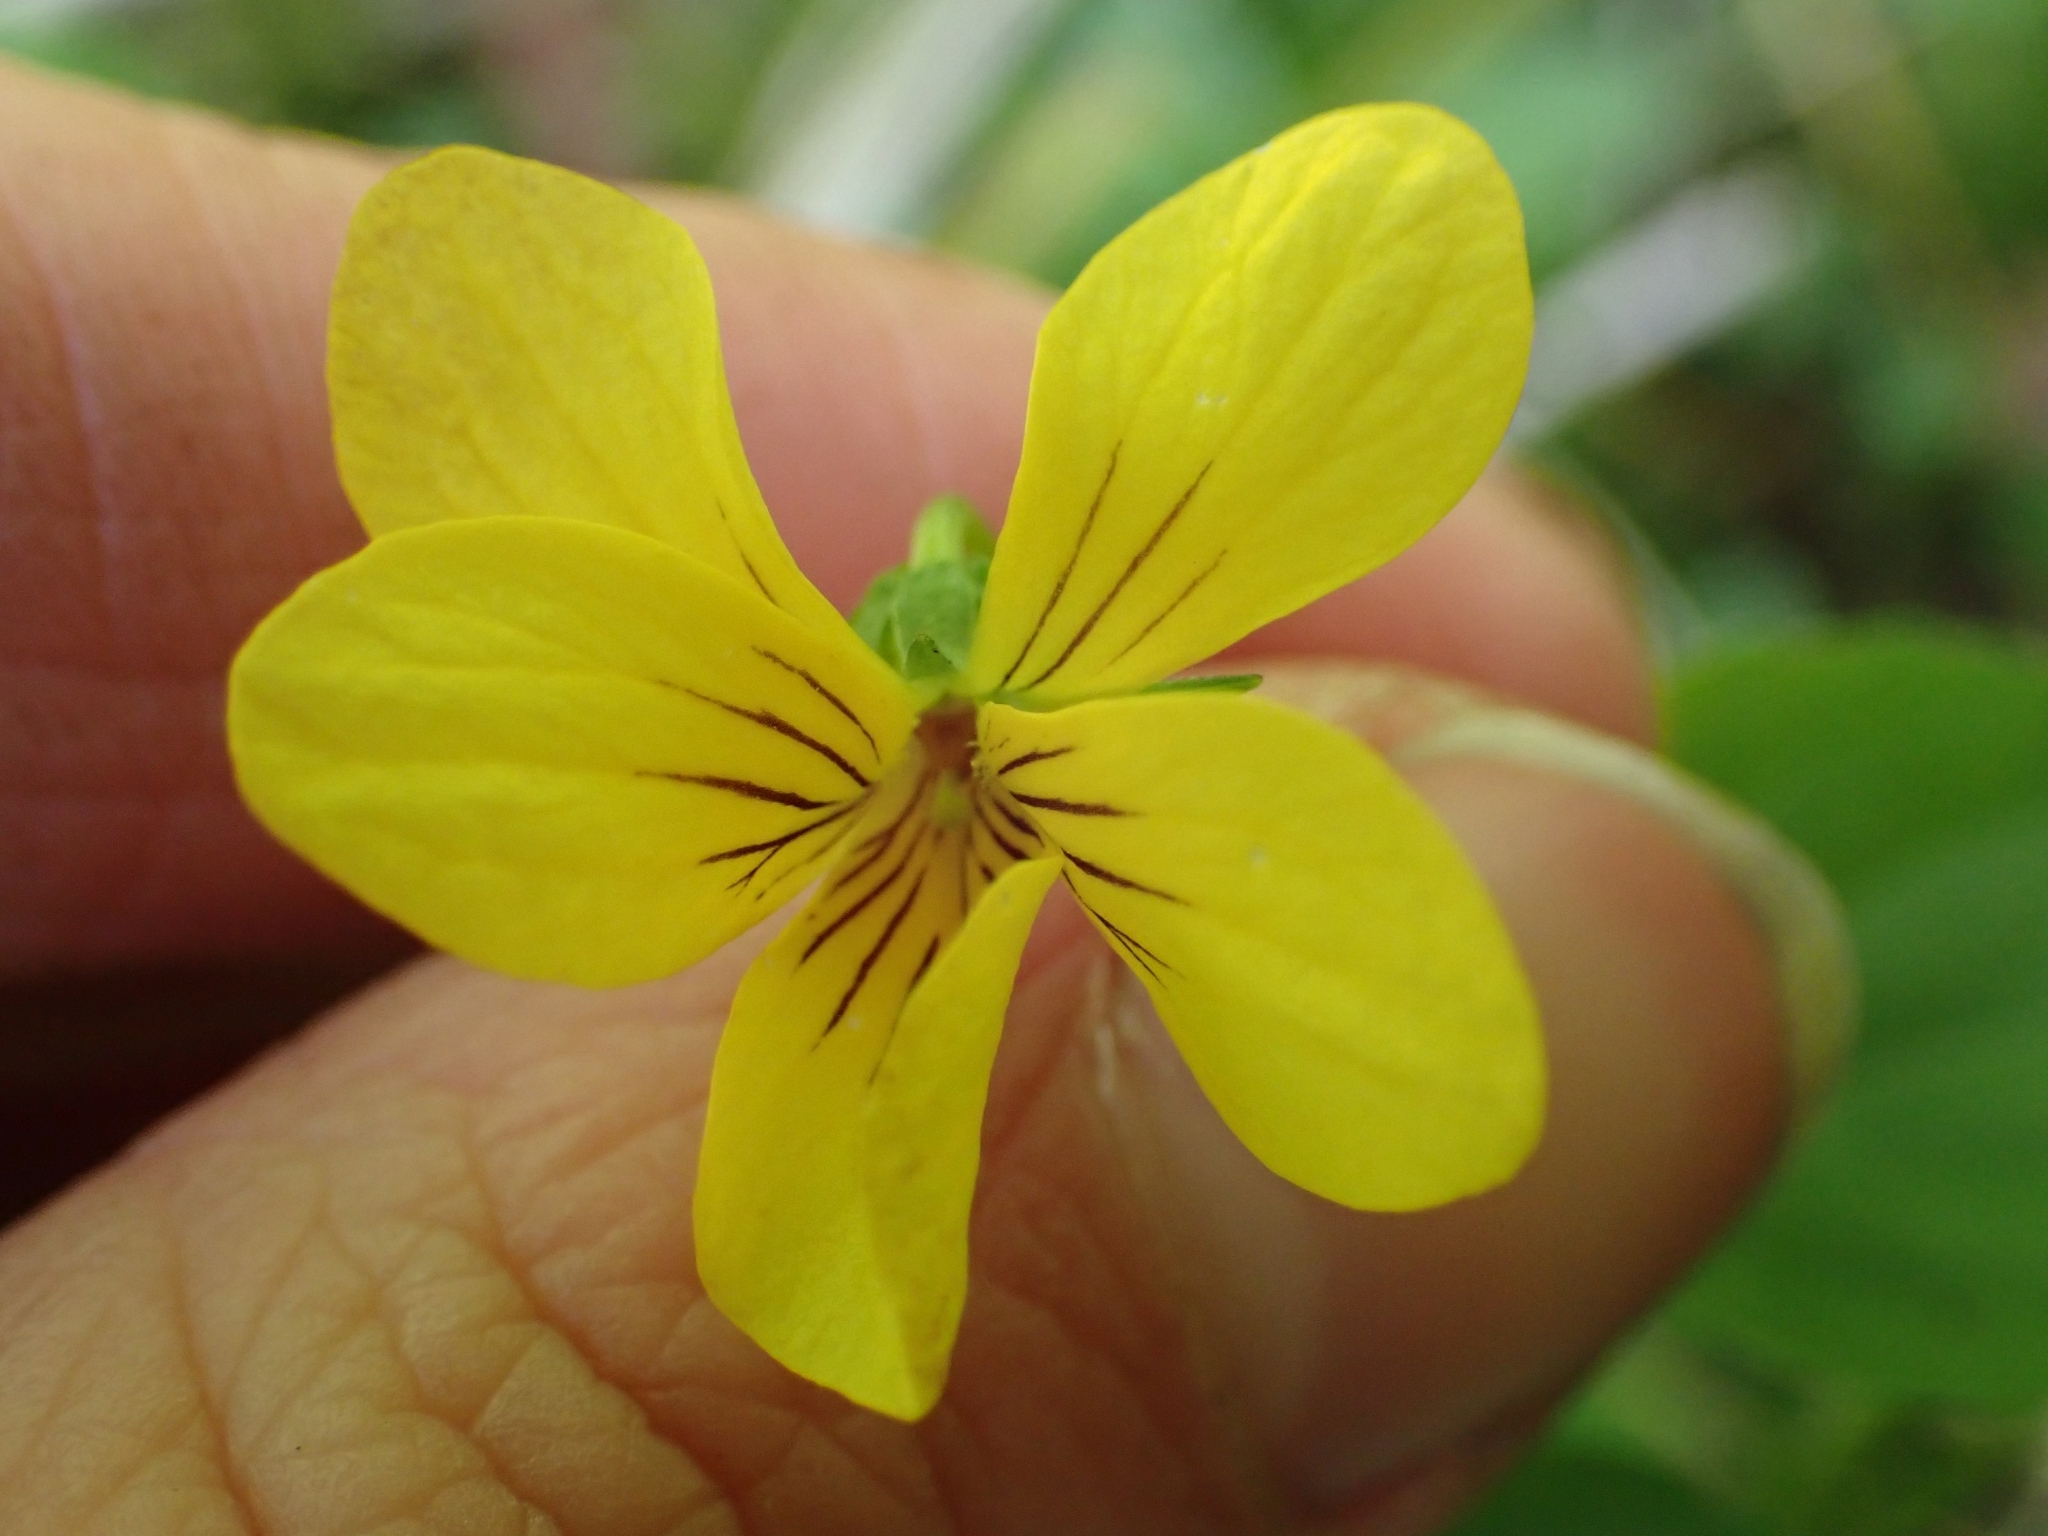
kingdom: Plantae
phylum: Tracheophyta
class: Magnoliopsida
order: Malpighiales
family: Violaceae
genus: Viola
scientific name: Viola glabella
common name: Stream violet
